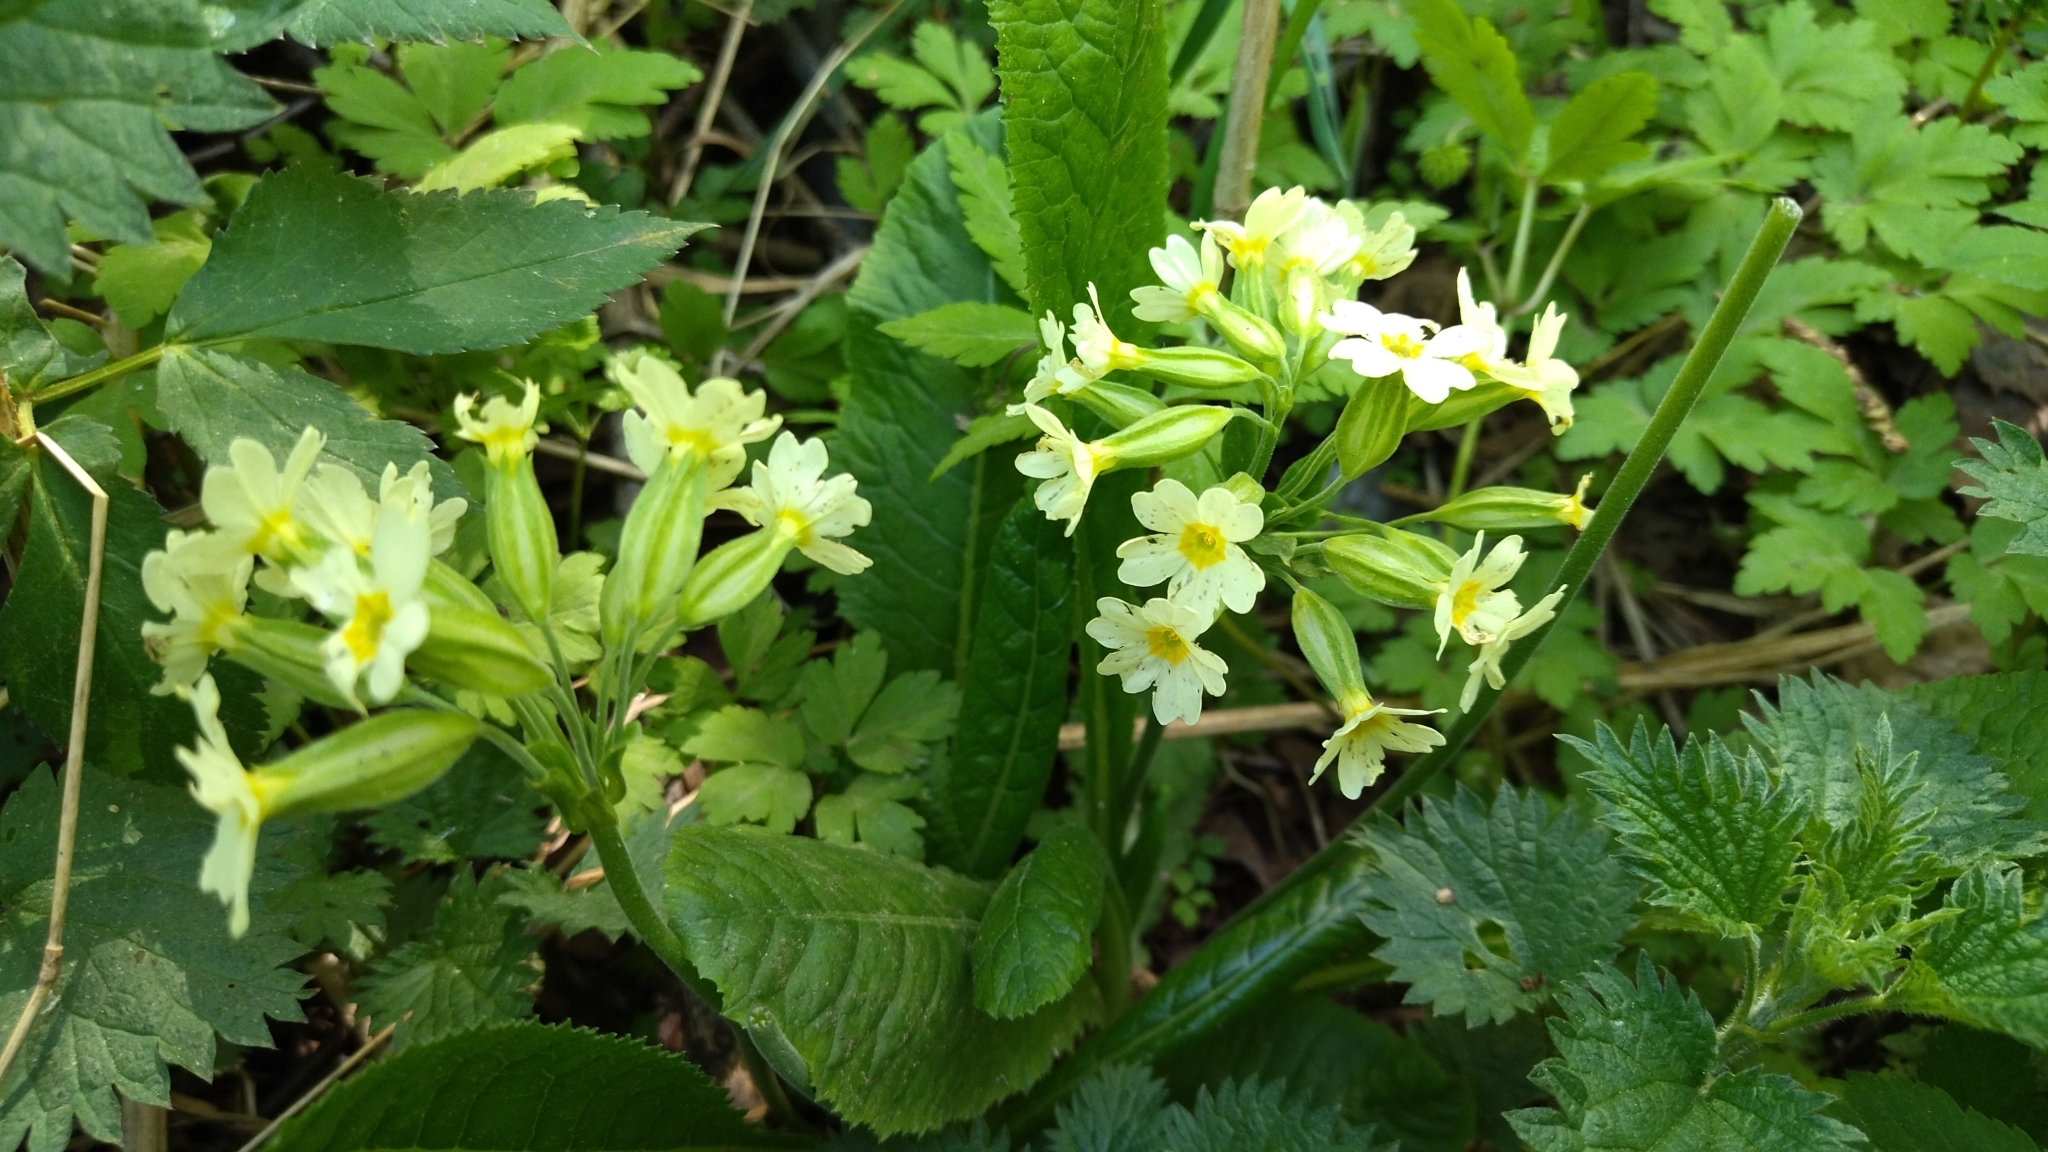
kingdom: Plantae
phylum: Tracheophyta
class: Magnoliopsida
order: Ericales
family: Primulaceae
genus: Primula
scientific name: Primula elatior
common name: Oxlip
